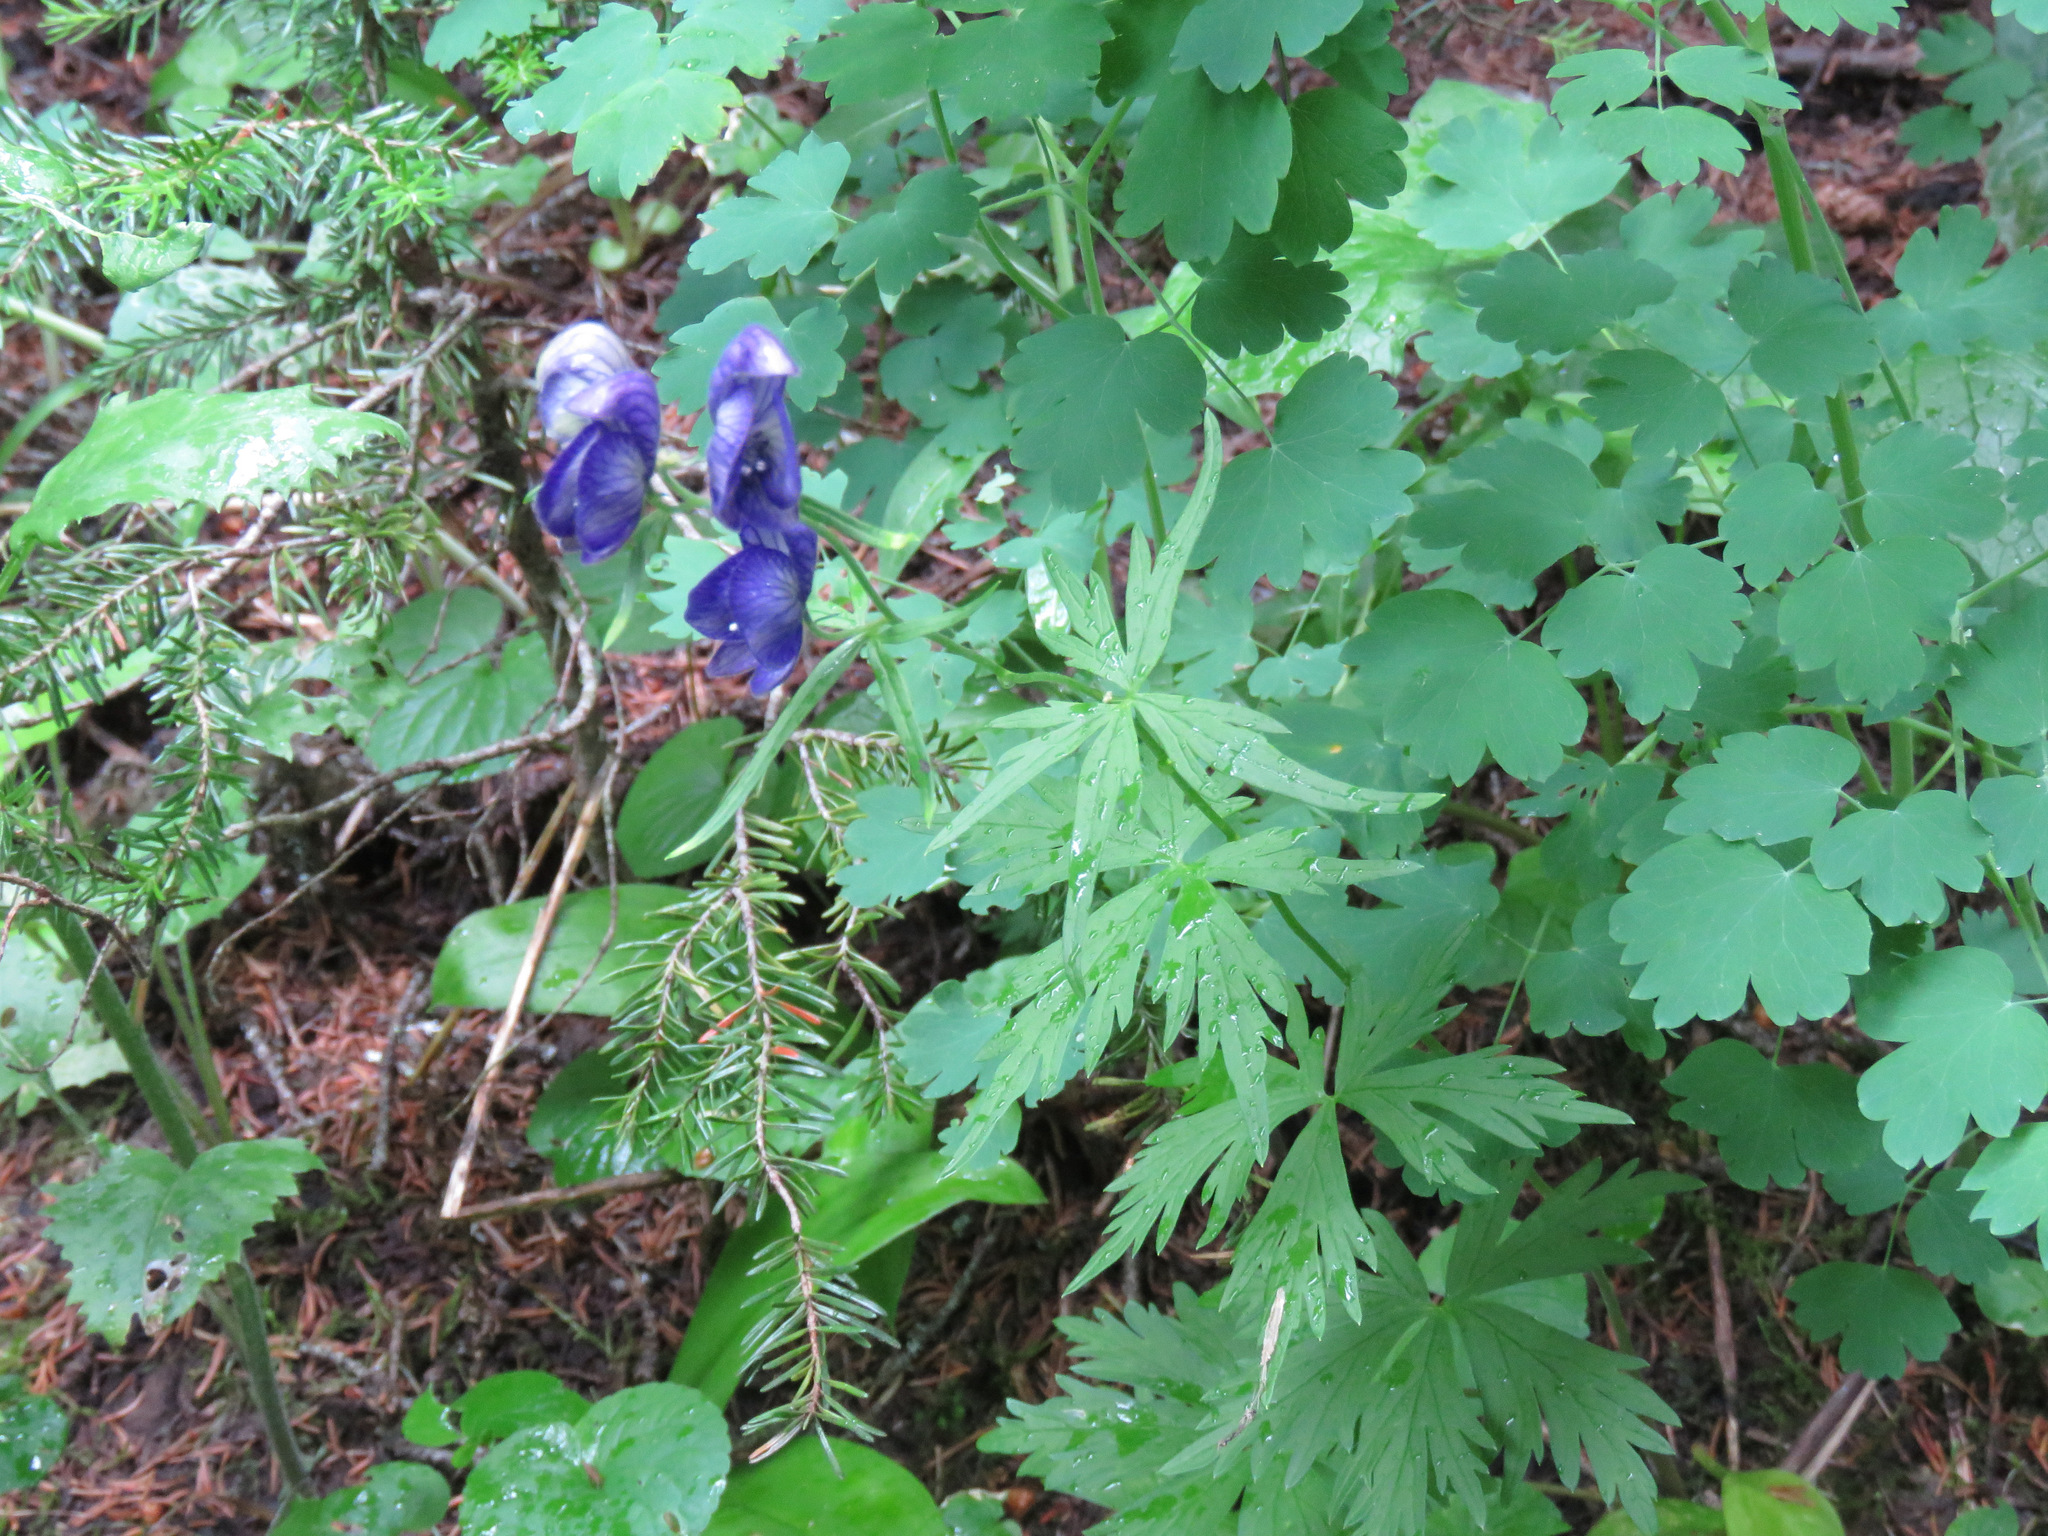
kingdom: Plantae
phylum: Tracheophyta
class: Magnoliopsida
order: Ranunculales
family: Ranunculaceae
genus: Aconitum
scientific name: Aconitum delphiniifolium
